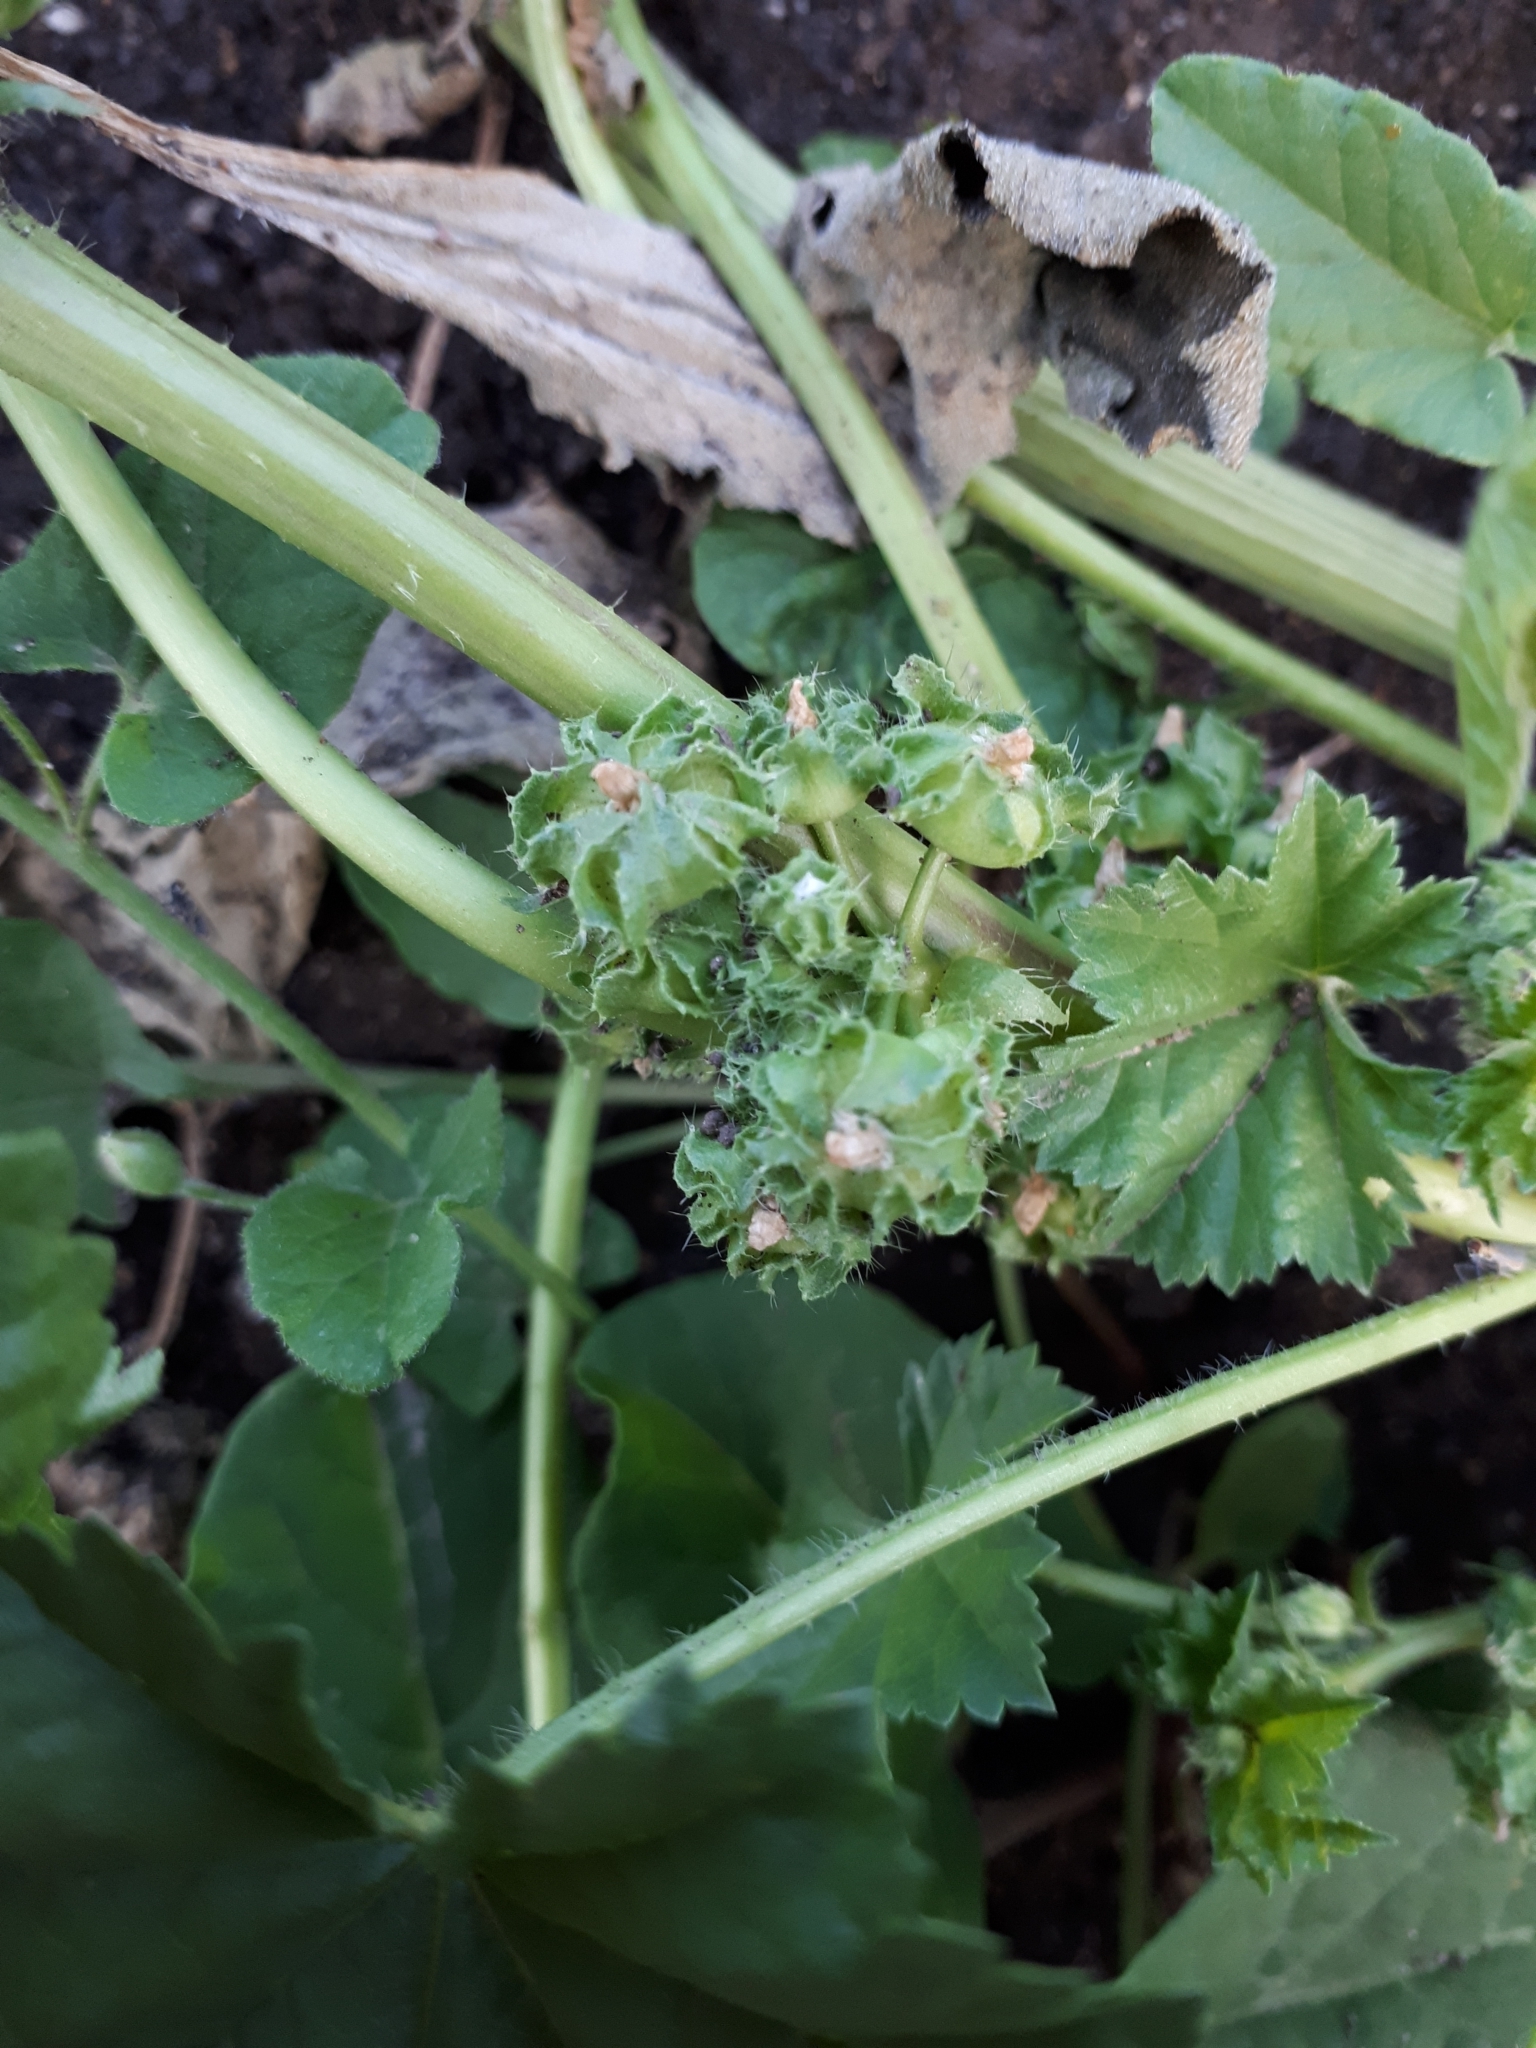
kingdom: Plantae
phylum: Tracheophyta
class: Magnoliopsida
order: Malvales
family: Malvaceae
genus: Malva
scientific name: Malva pusilla
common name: Small mallow
